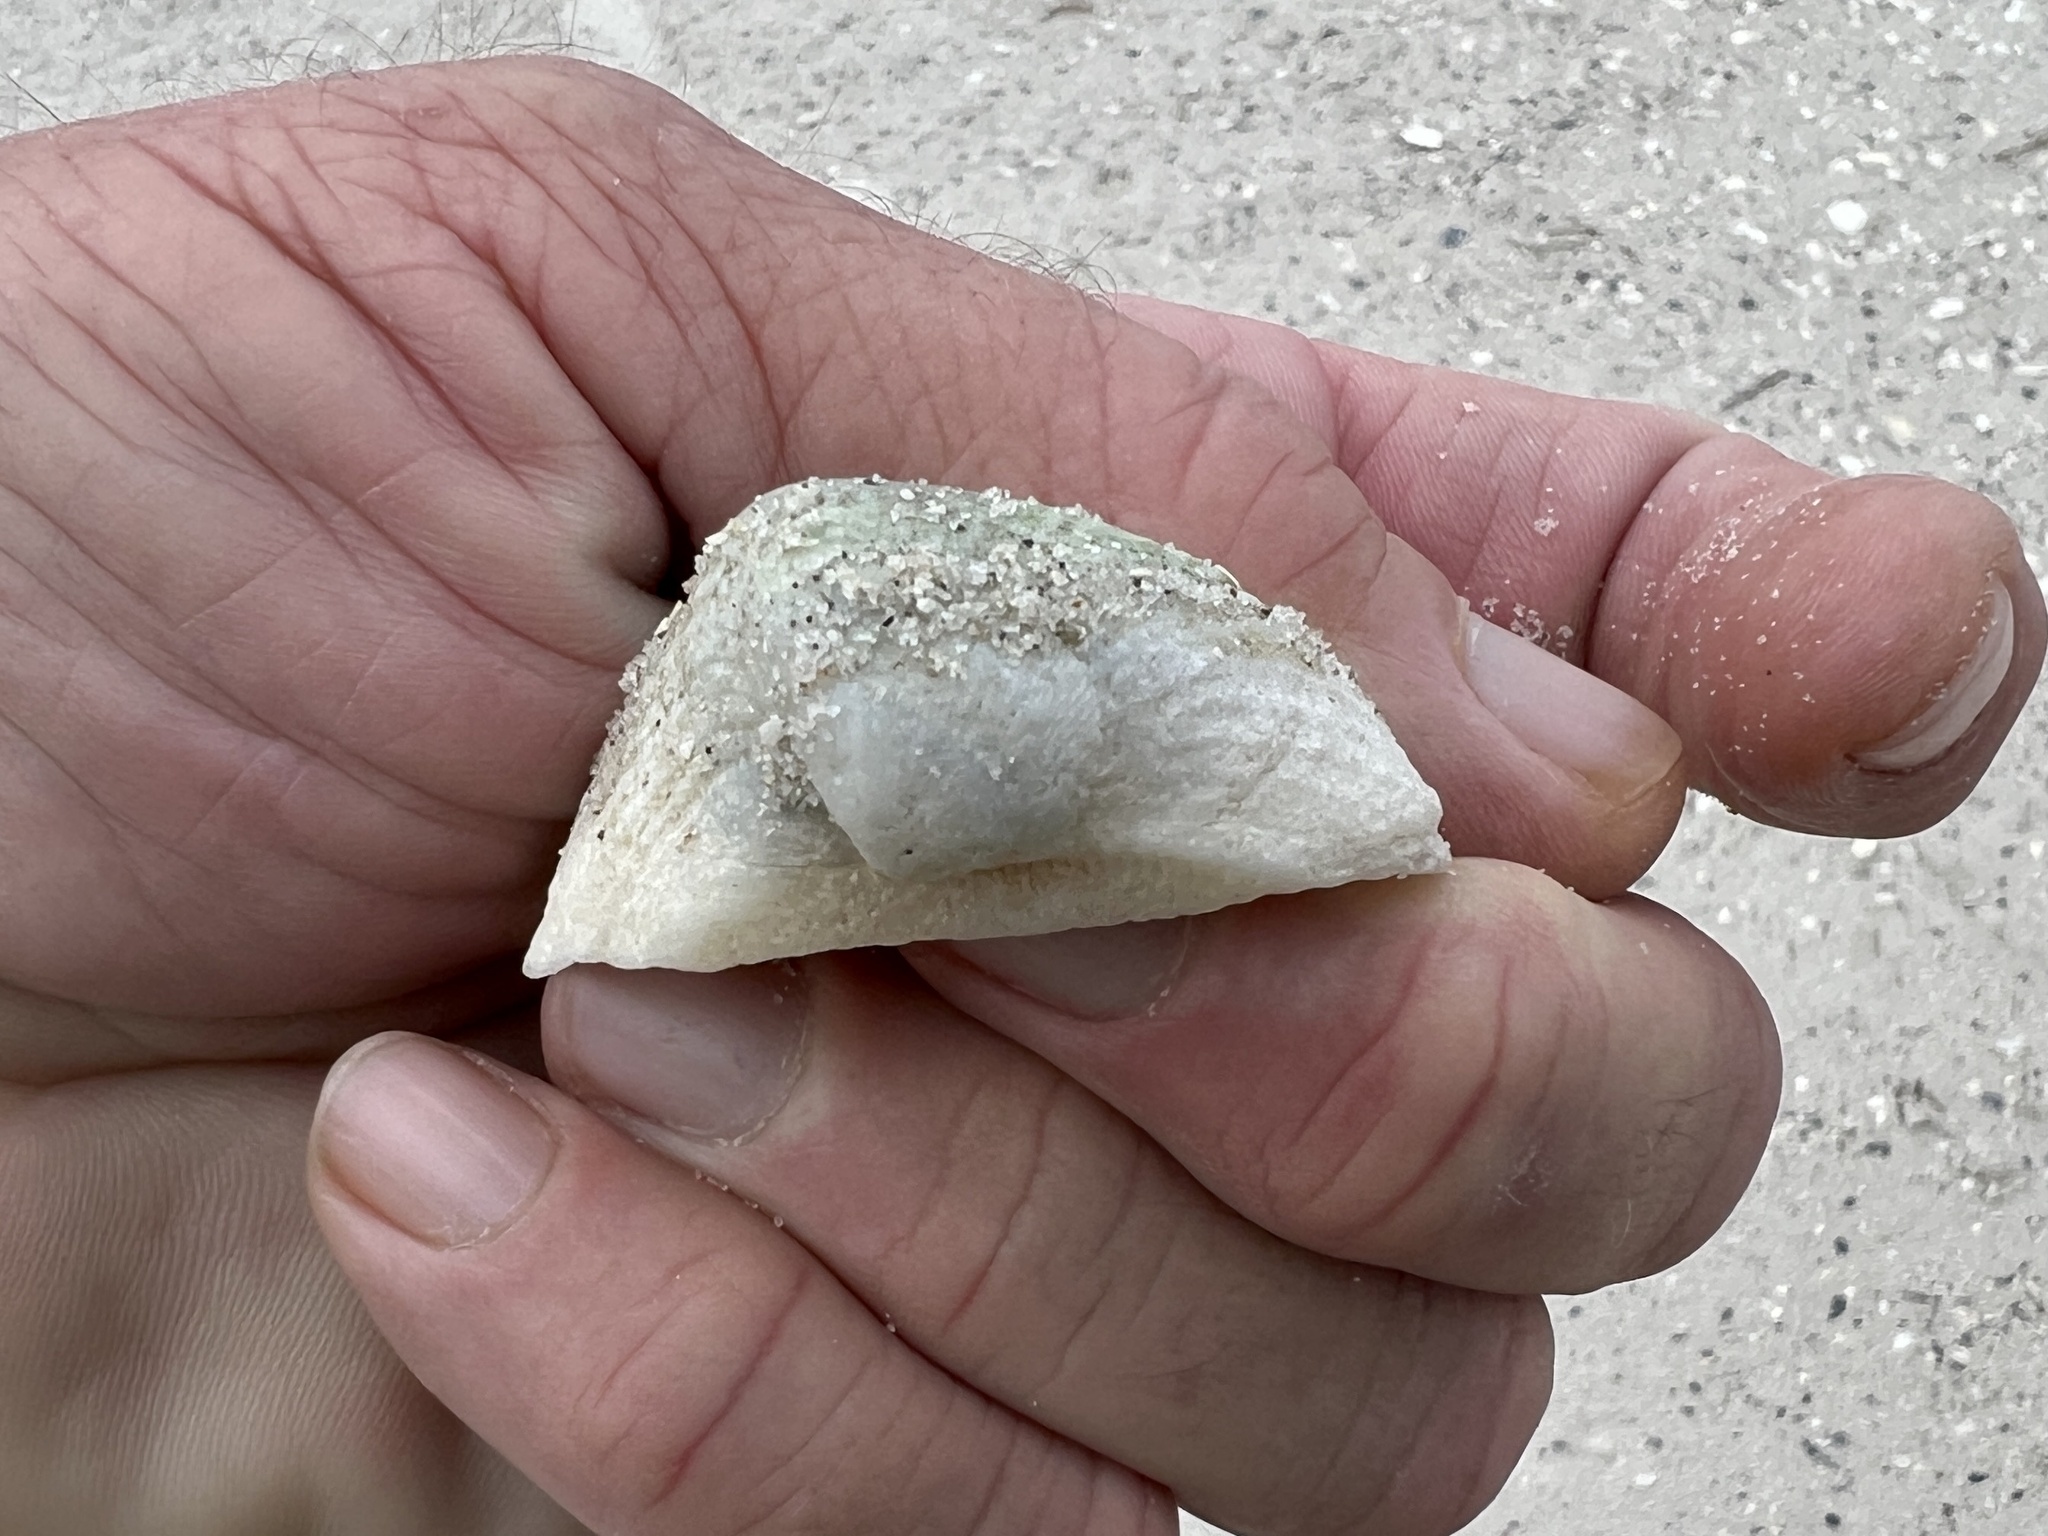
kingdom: Animalia
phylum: Mollusca
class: Bivalvia
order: Arcida
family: Noetiidae
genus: Noetia
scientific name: Noetia ponderosa
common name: Ponderous ark
